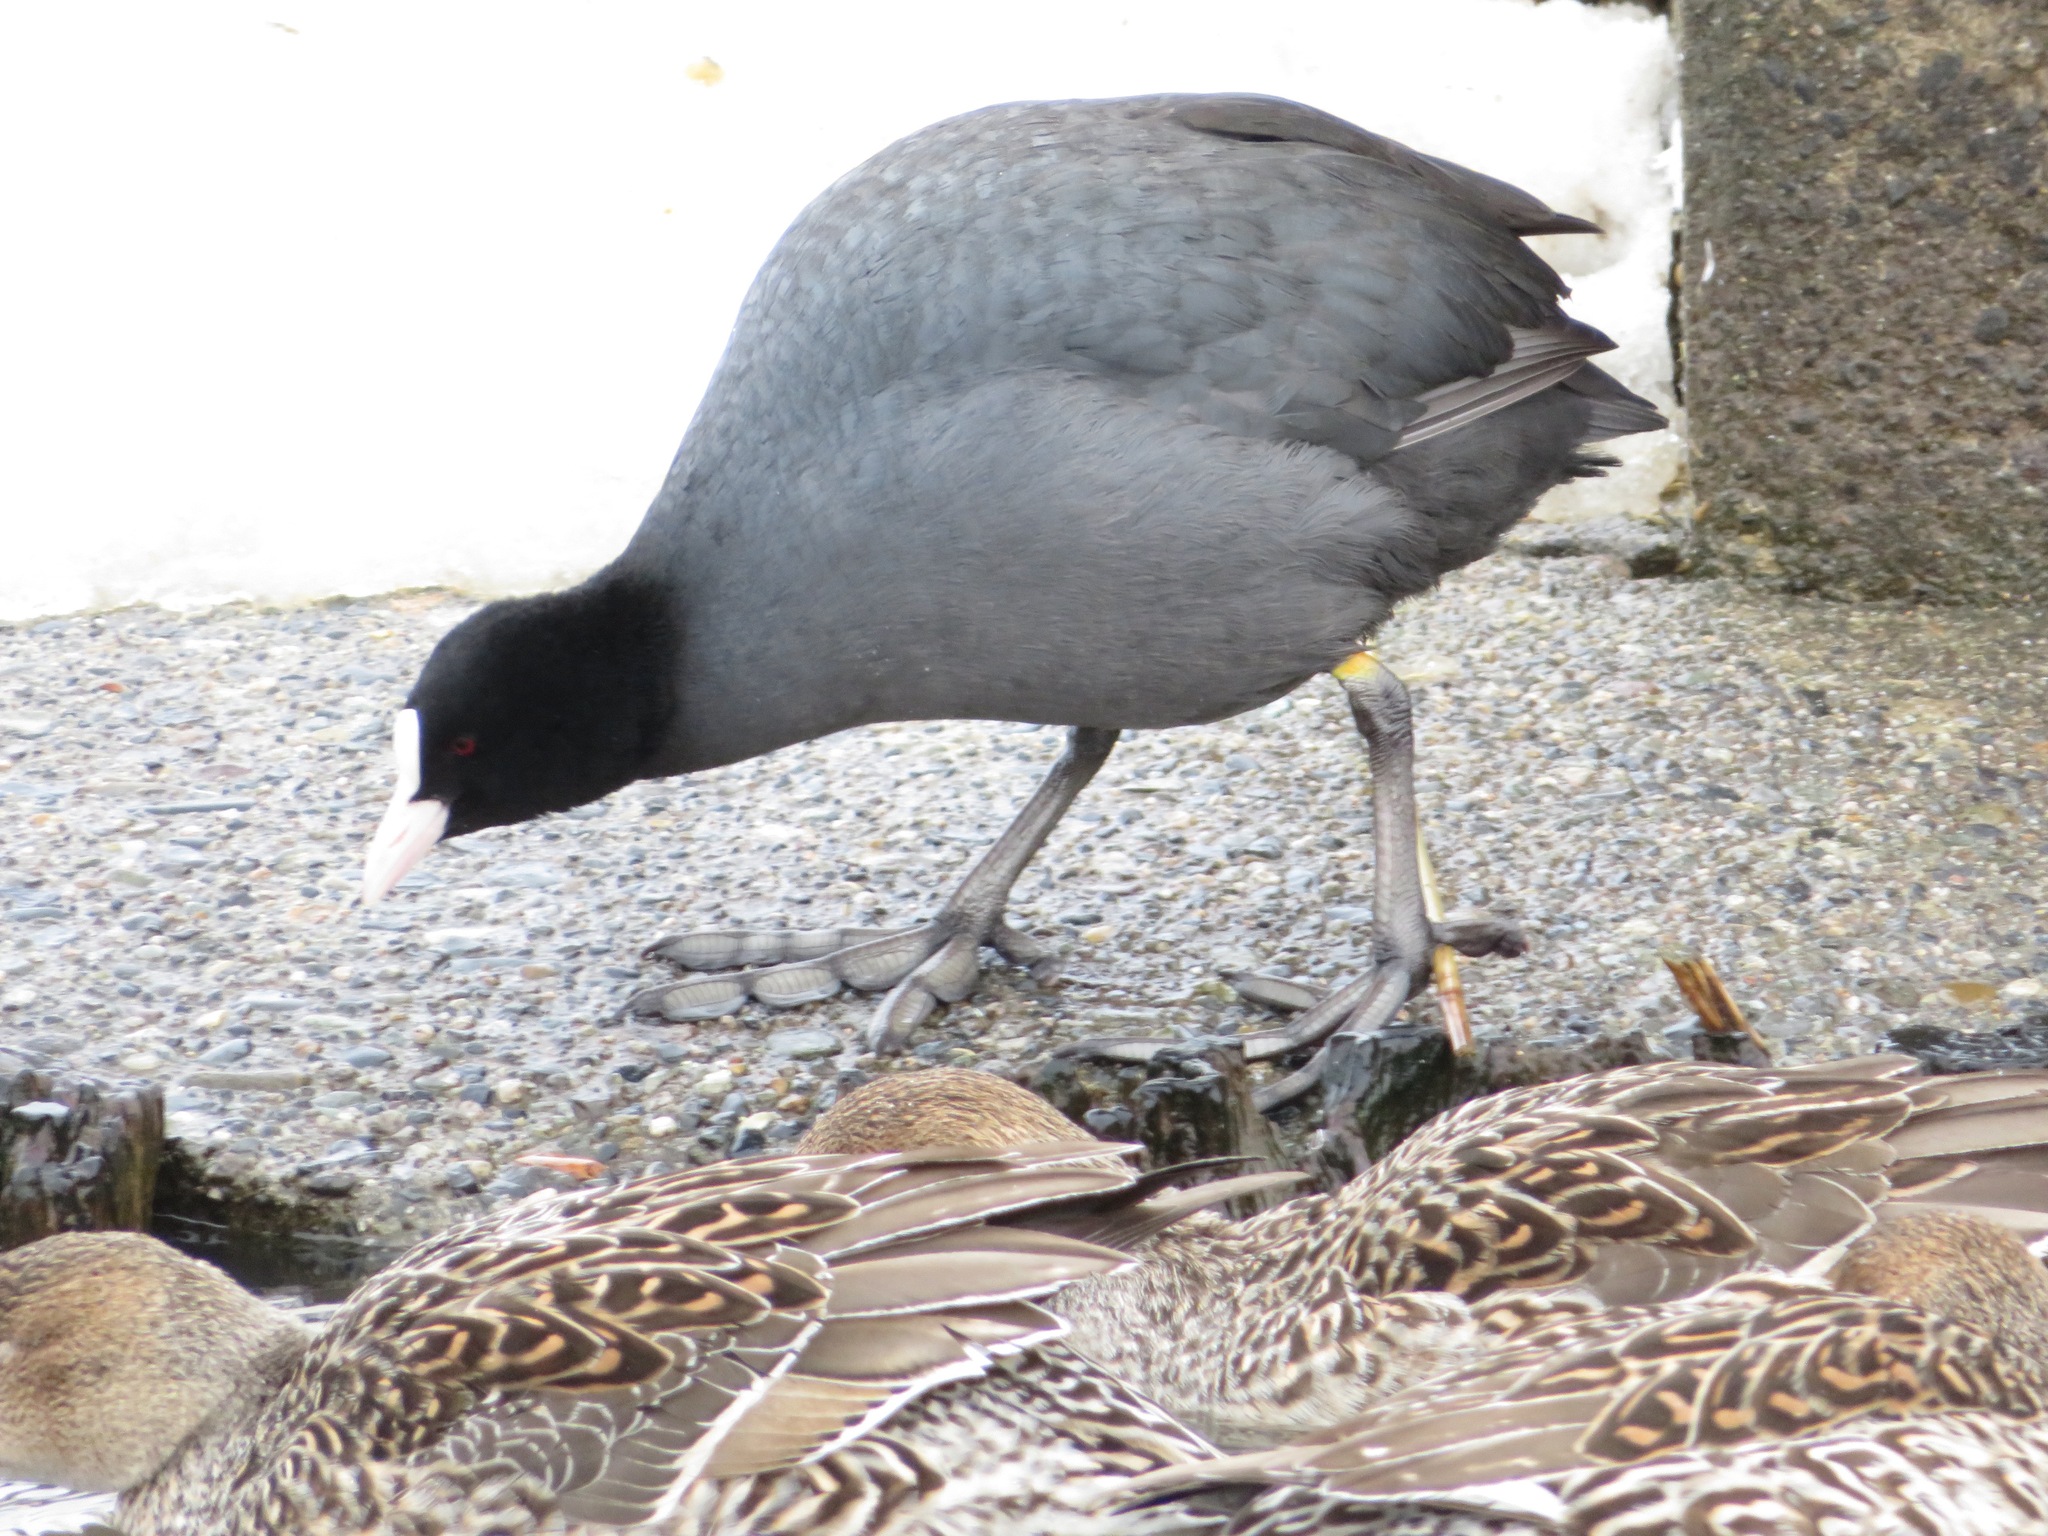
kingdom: Animalia
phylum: Chordata
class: Aves
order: Gruiformes
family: Rallidae
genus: Fulica
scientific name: Fulica atra
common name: Eurasian coot
